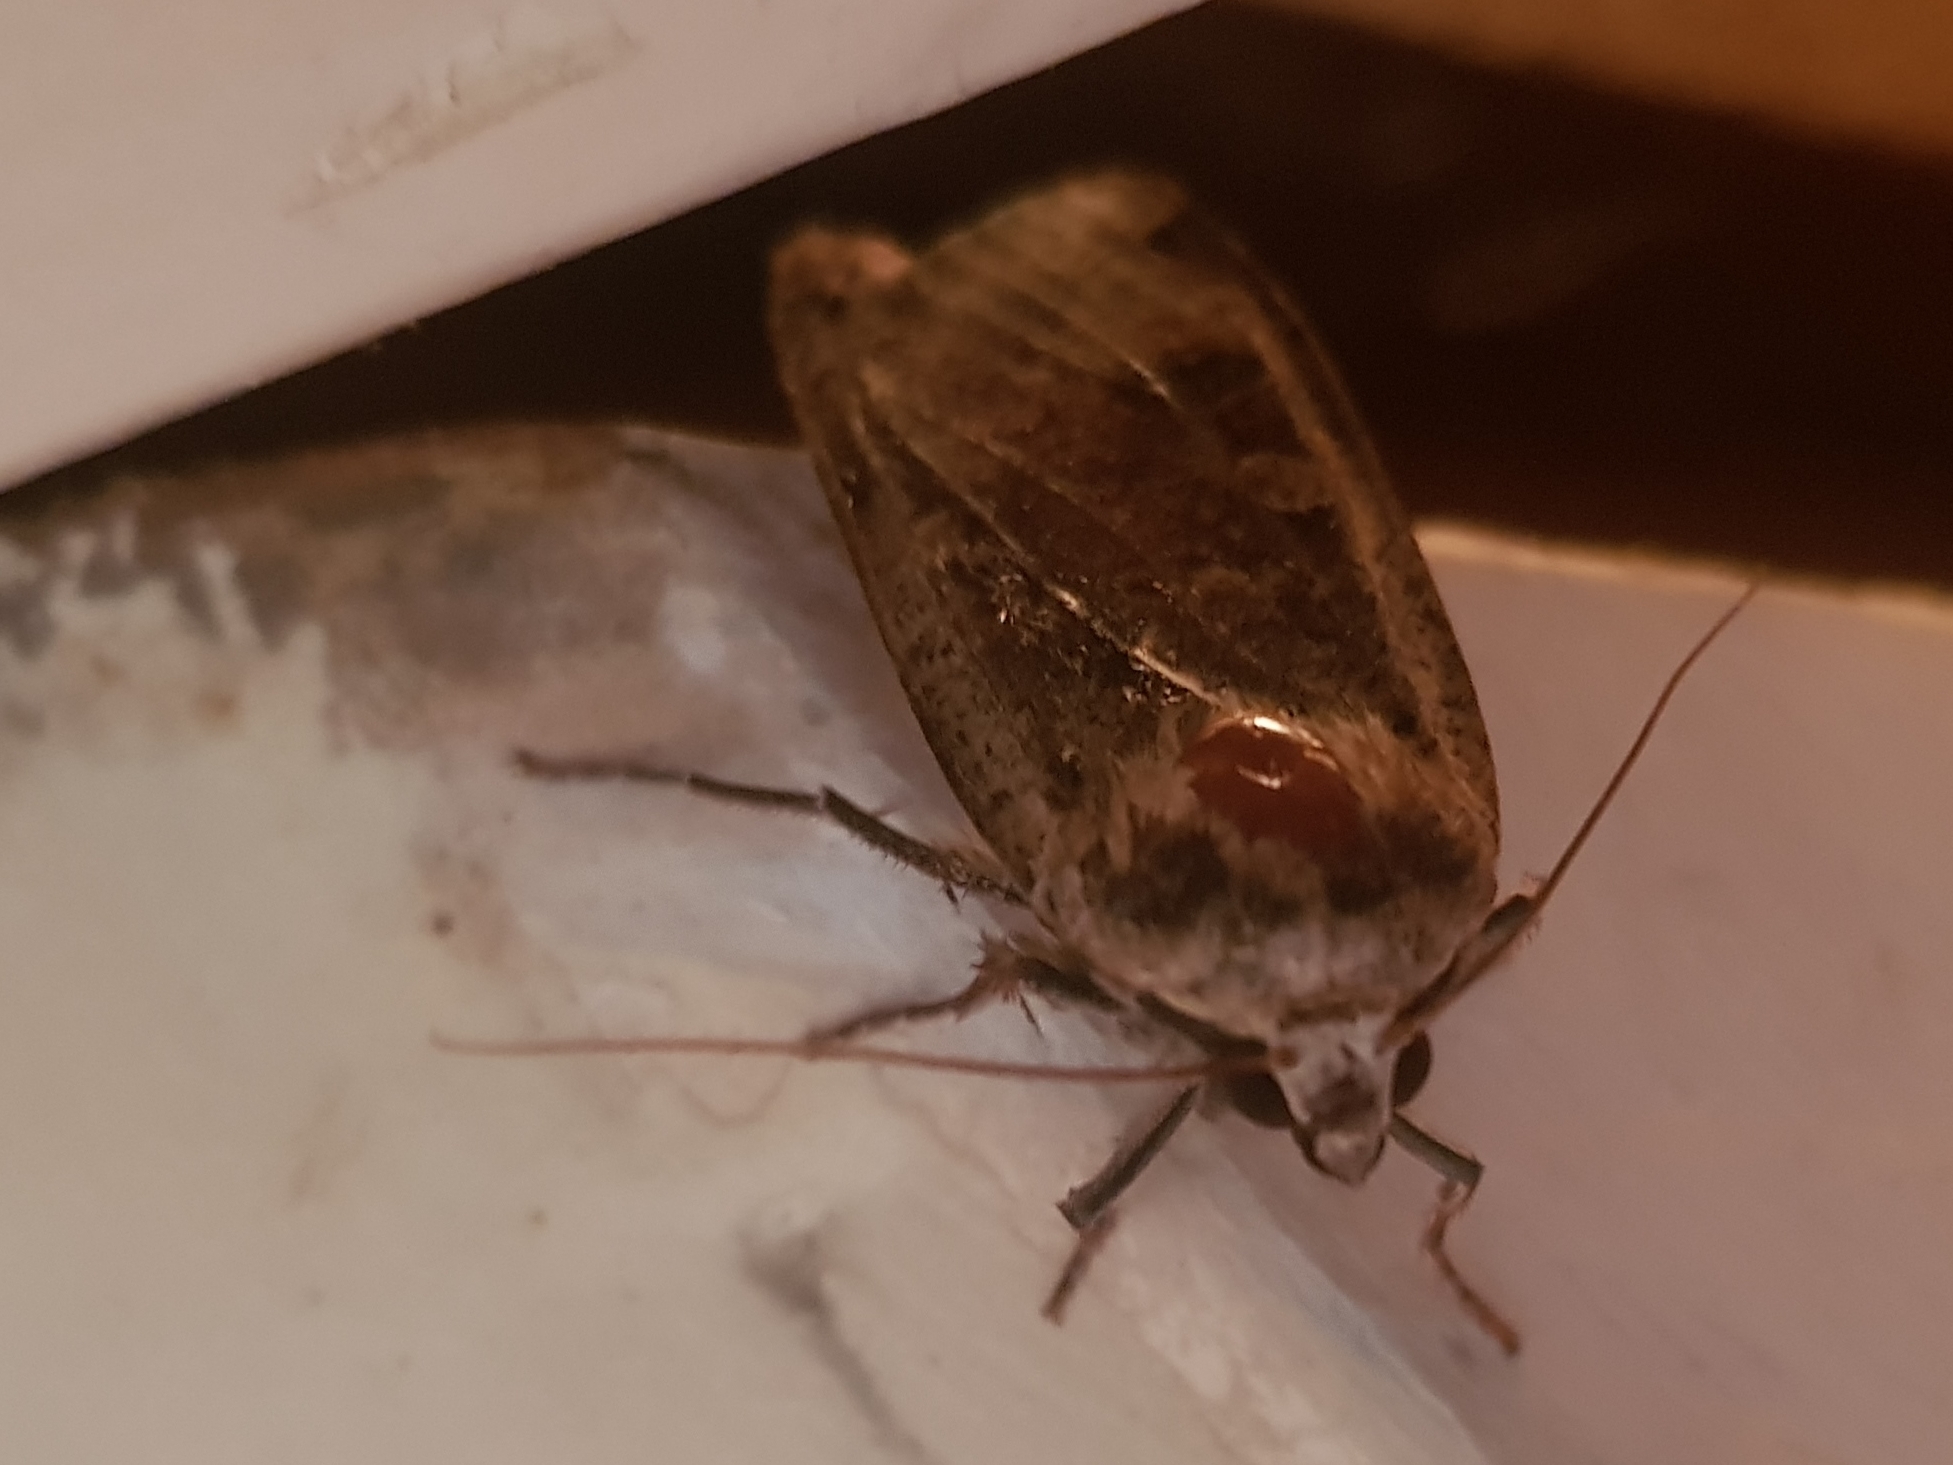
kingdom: Animalia
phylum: Arthropoda
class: Insecta
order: Lepidoptera
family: Noctuidae
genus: Noctua
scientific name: Noctua pronuba
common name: Large yellow underwing
